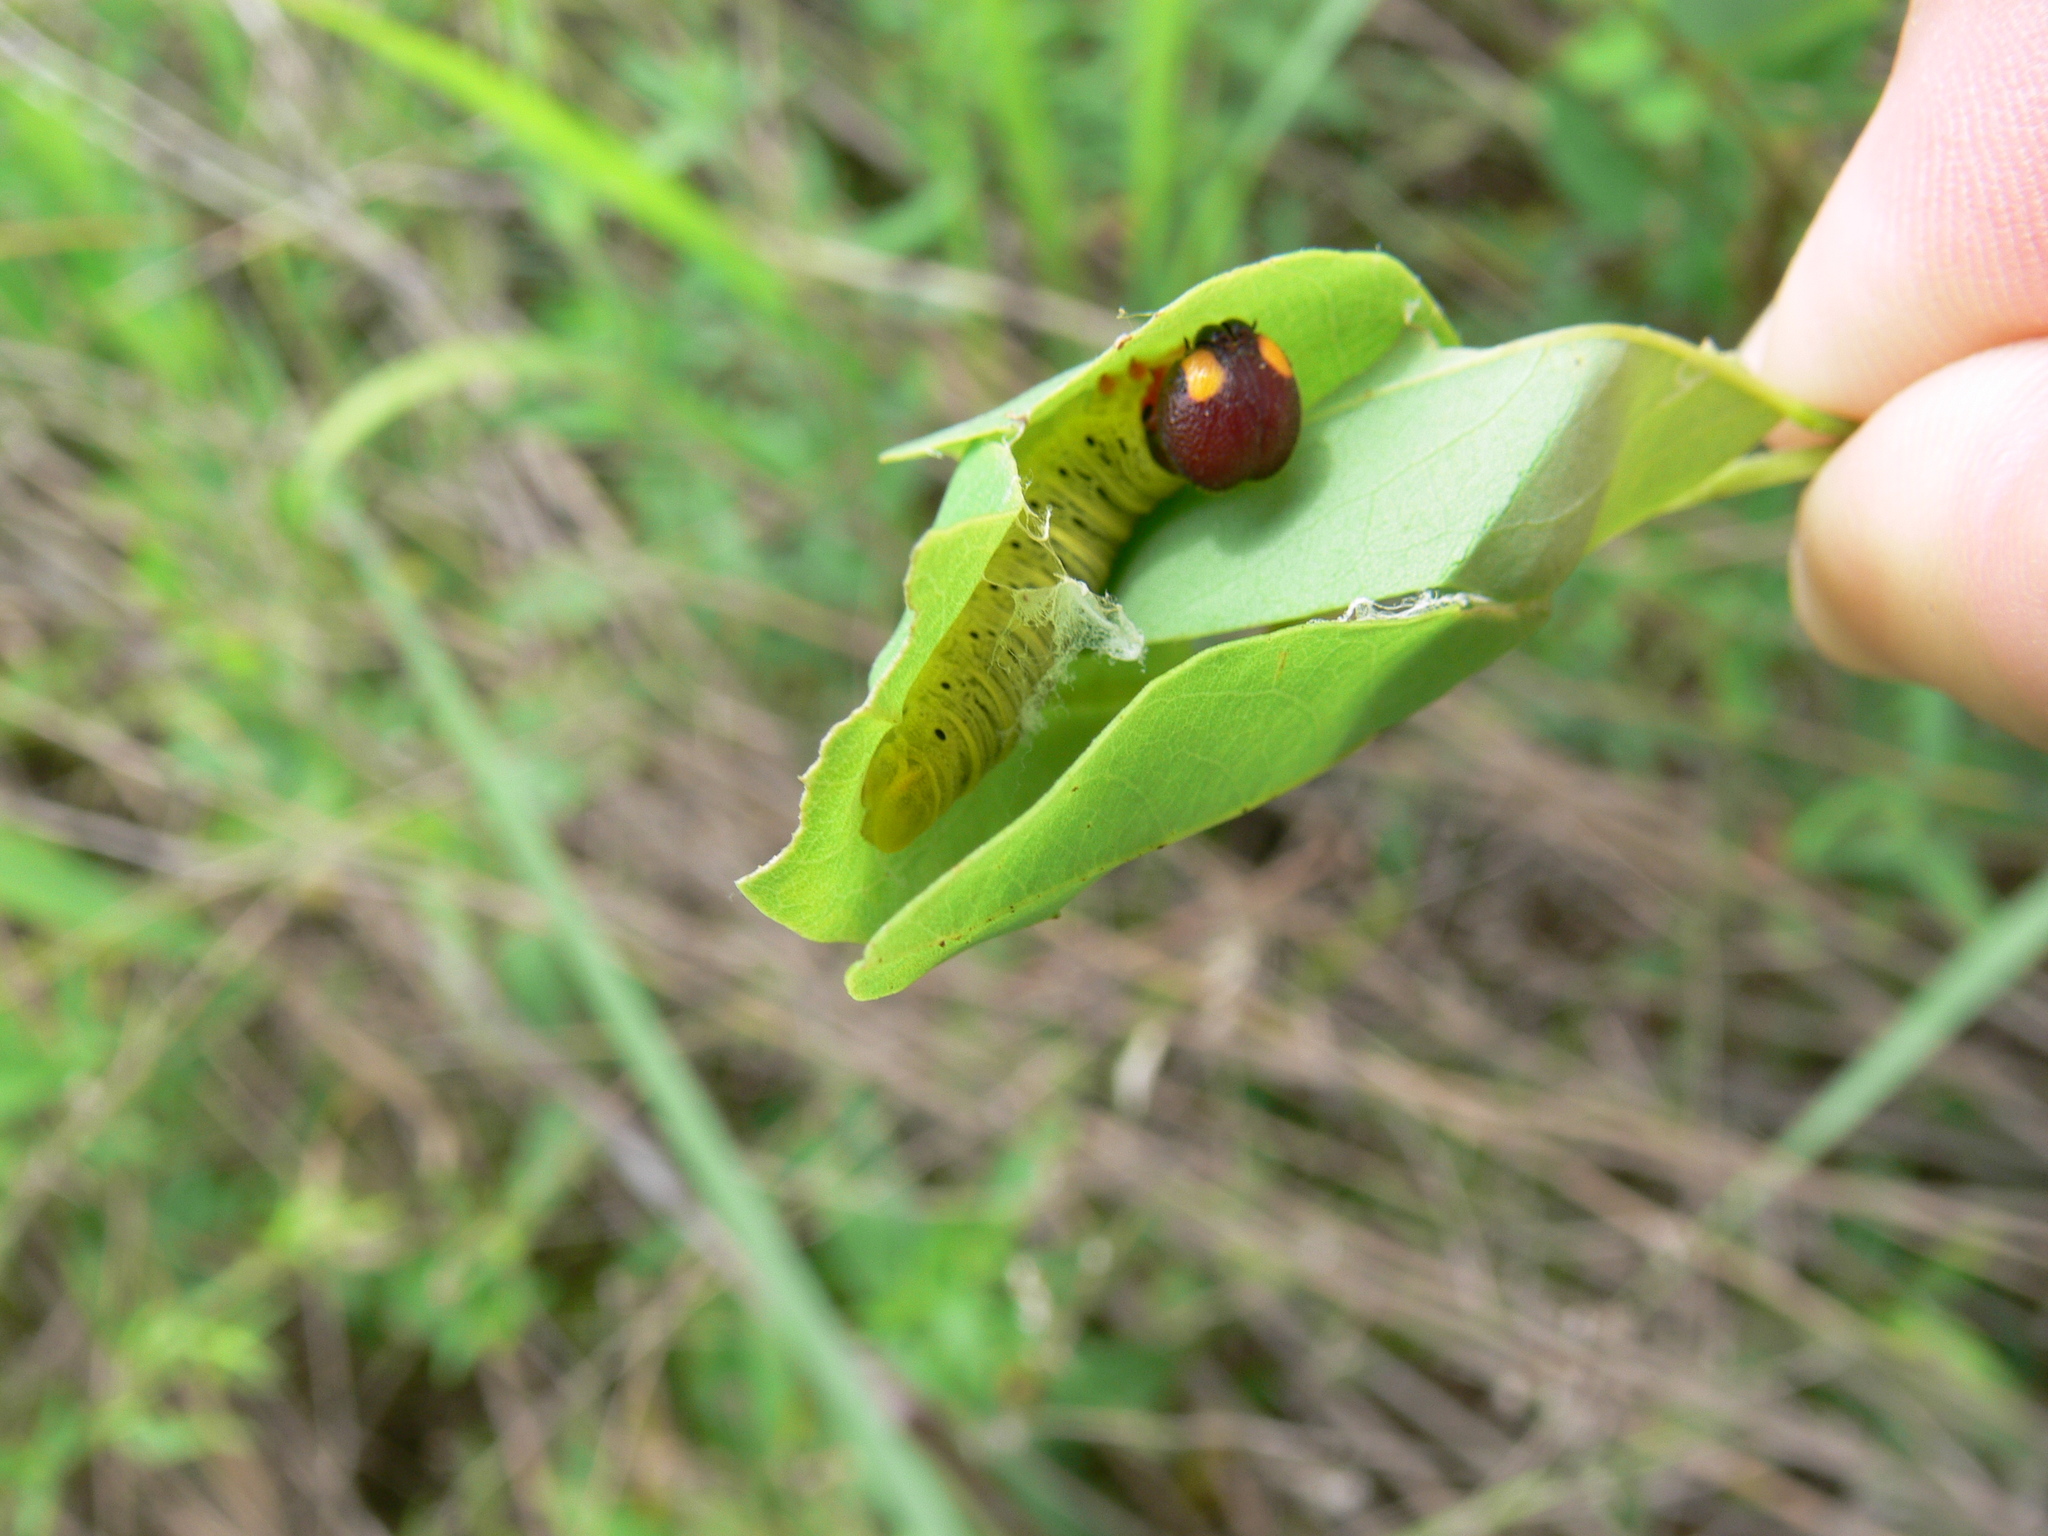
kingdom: Animalia
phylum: Arthropoda
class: Insecta
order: Lepidoptera
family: Hesperiidae
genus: Epargyreus
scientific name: Epargyreus clarus
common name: Silver-spotted skipper
